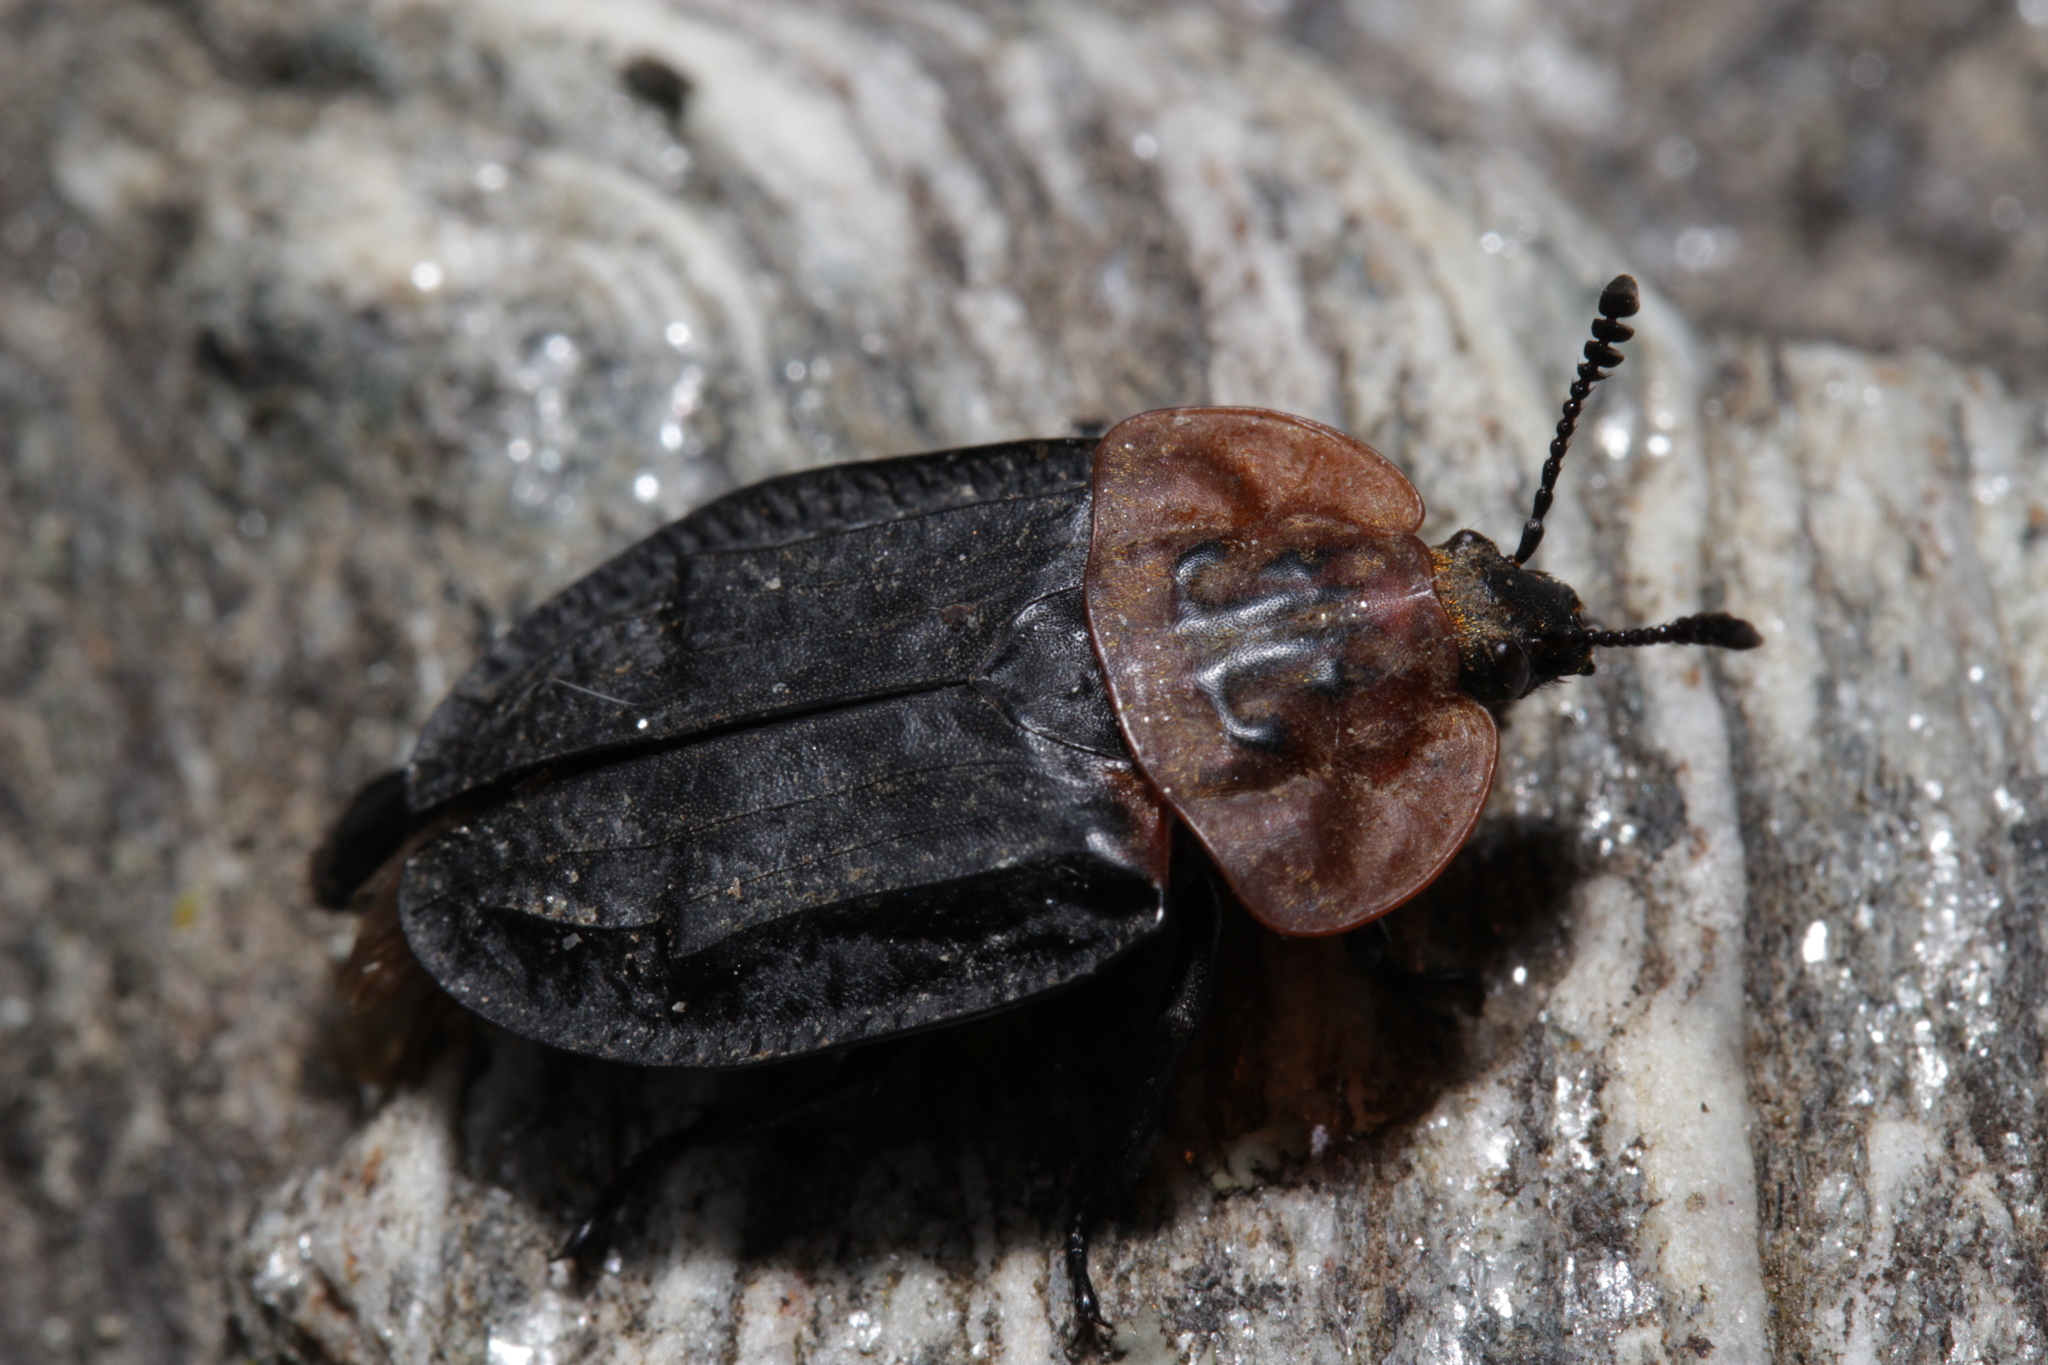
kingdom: Animalia
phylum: Arthropoda
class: Insecta
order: Coleoptera
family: Staphylinidae
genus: Oiceoptoma
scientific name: Oiceoptoma thoracicum
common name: Red-breasted carrion beetle
